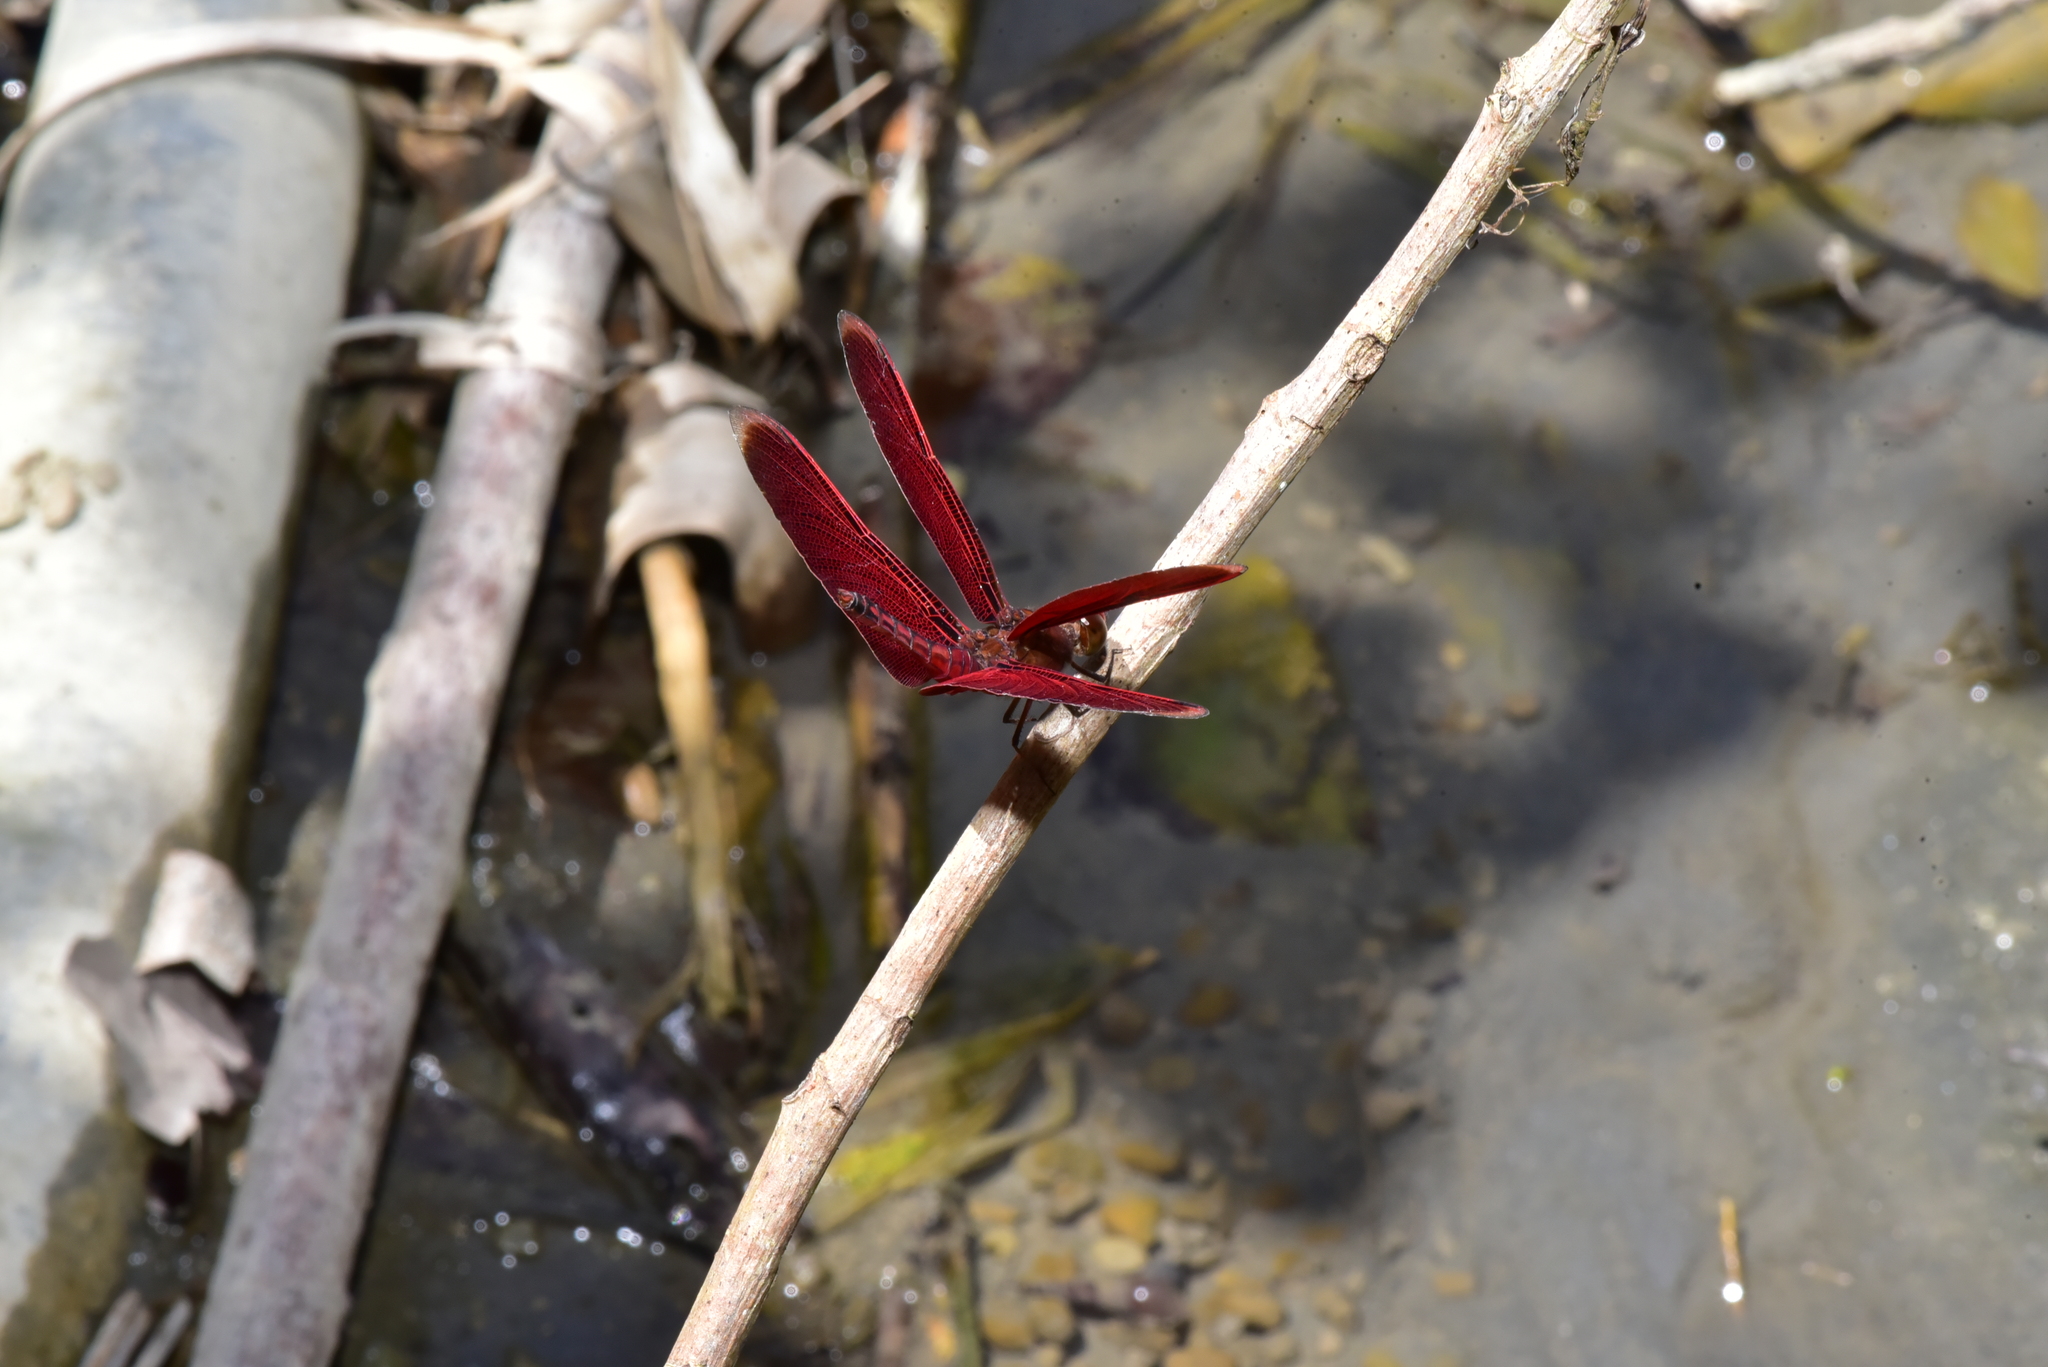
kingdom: Animalia
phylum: Arthropoda
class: Insecta
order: Odonata
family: Libellulidae
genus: Neurothemis
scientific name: Neurothemis taiwanensis
